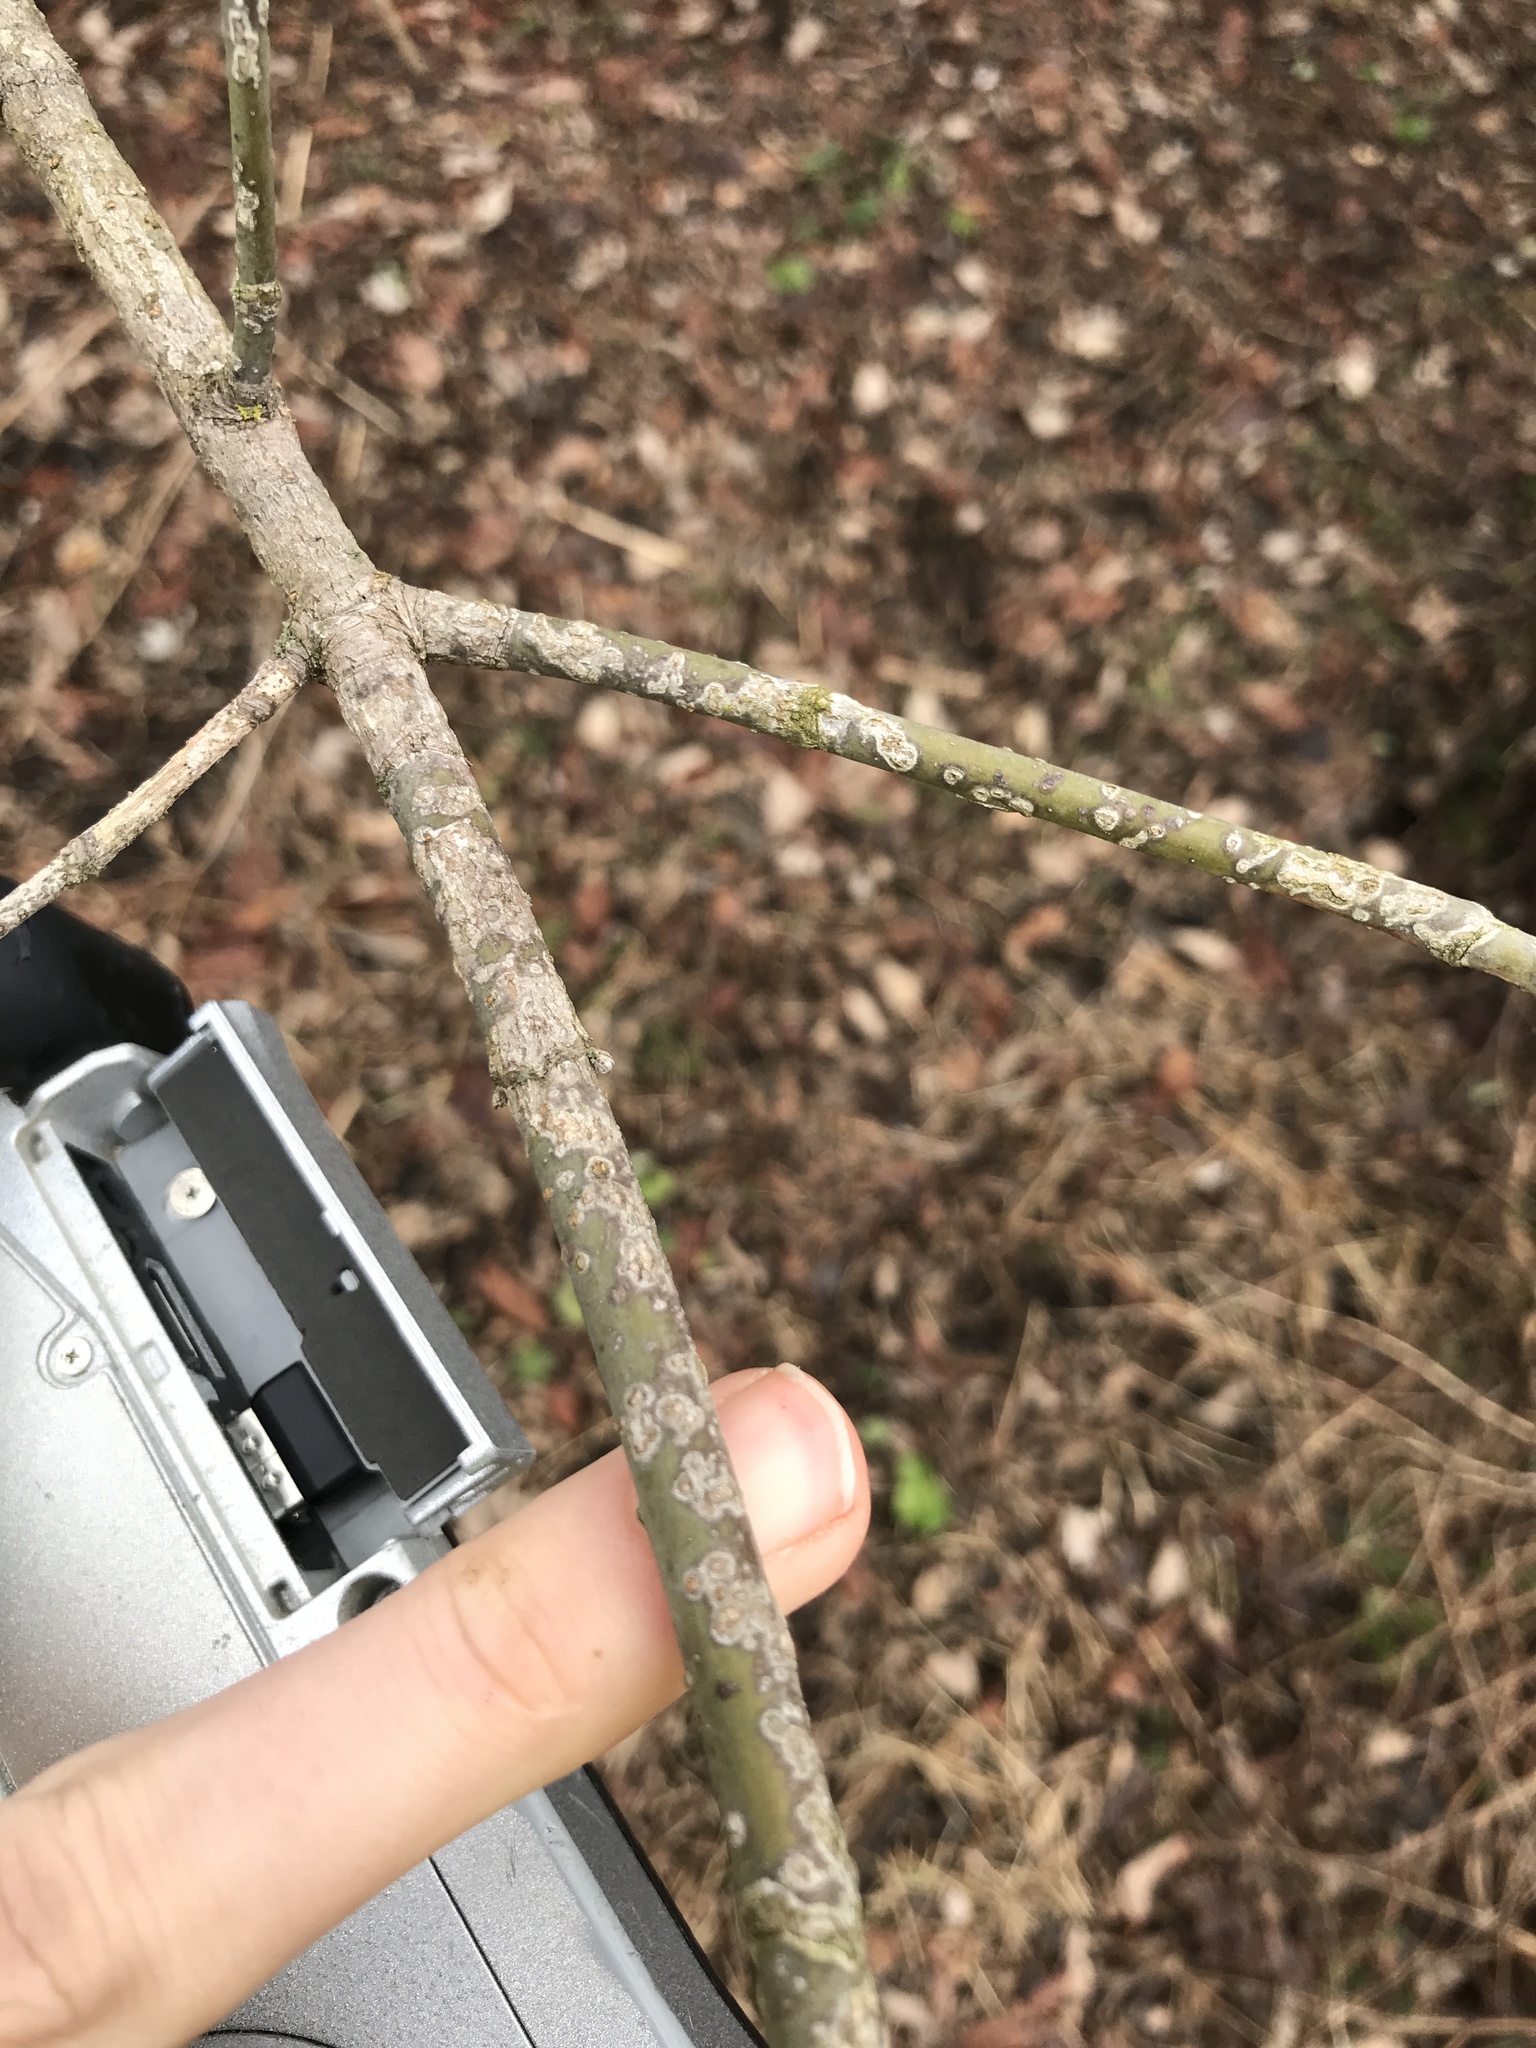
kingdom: Plantae
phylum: Tracheophyta
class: Magnoliopsida
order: Sapindales
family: Sapindaceae
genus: Acer
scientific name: Acer negundo
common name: Ashleaf maple
